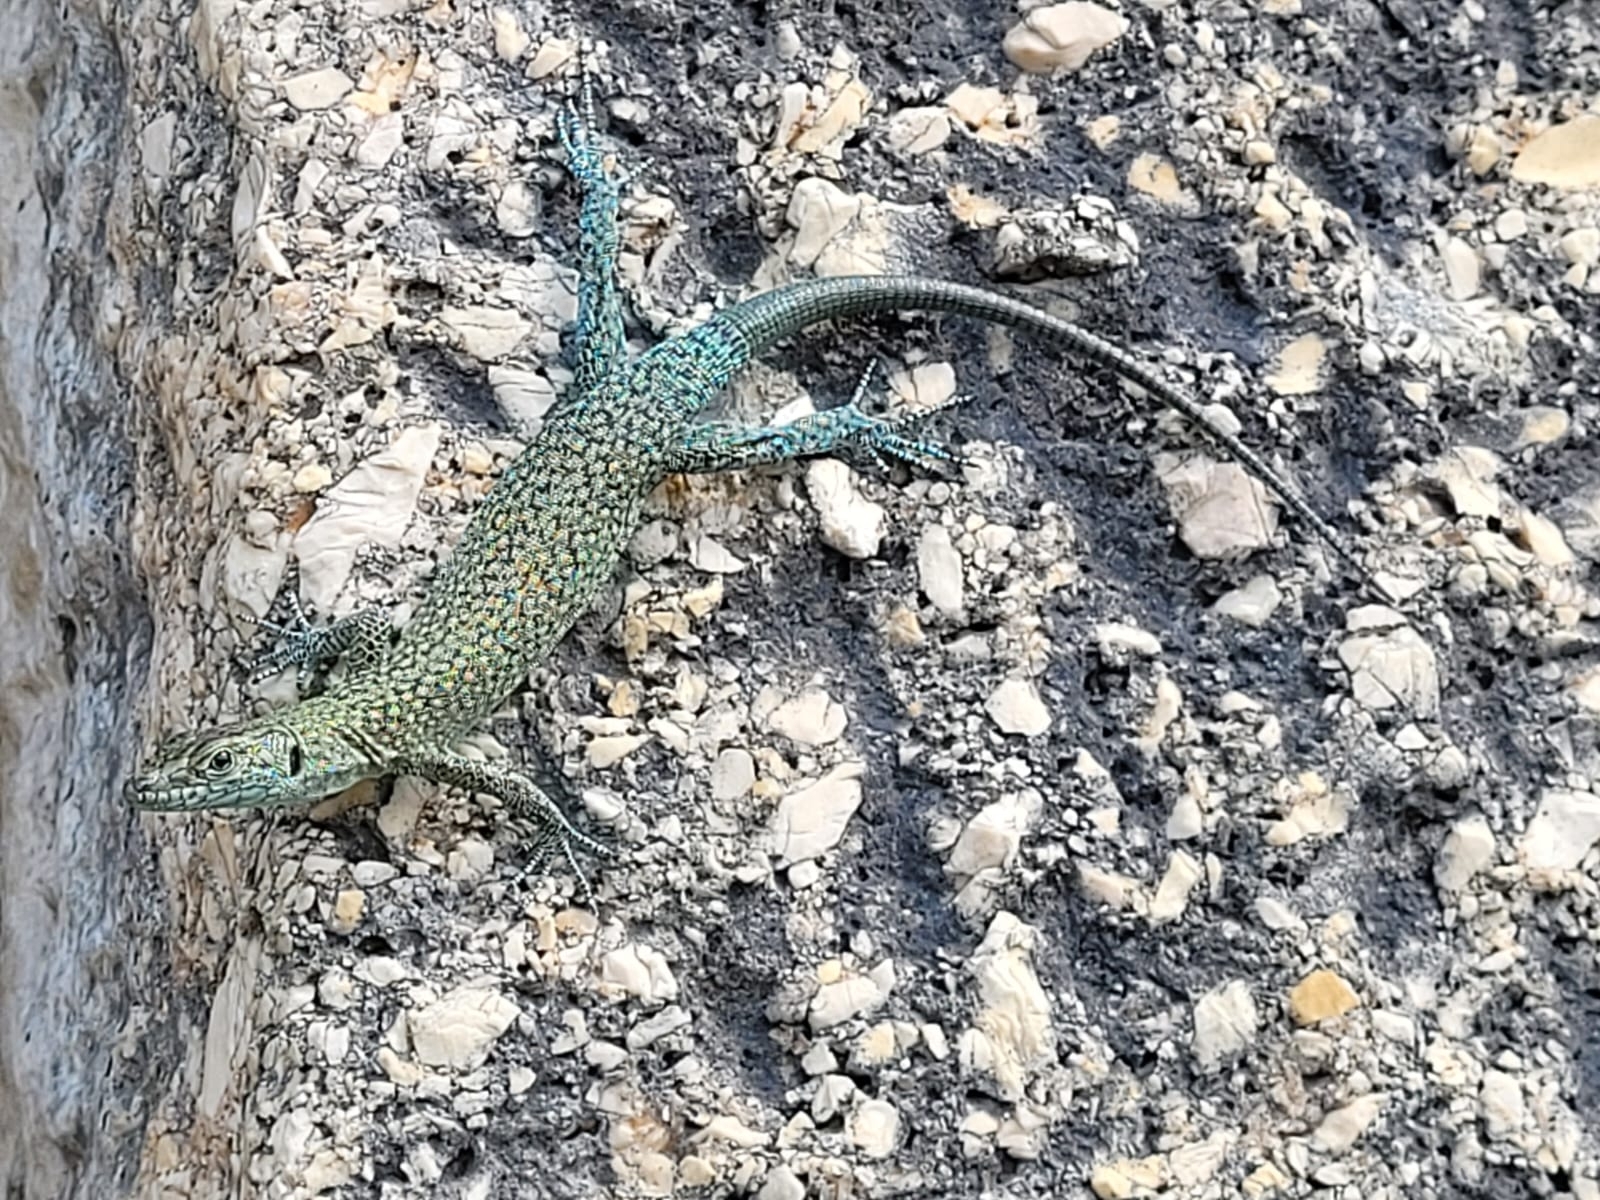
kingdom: Animalia
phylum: Chordata
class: Squamata
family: Lacertidae
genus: Dalmatolacerta
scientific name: Dalmatolacerta oxycephala
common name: Sharp-snouted rock lizard
